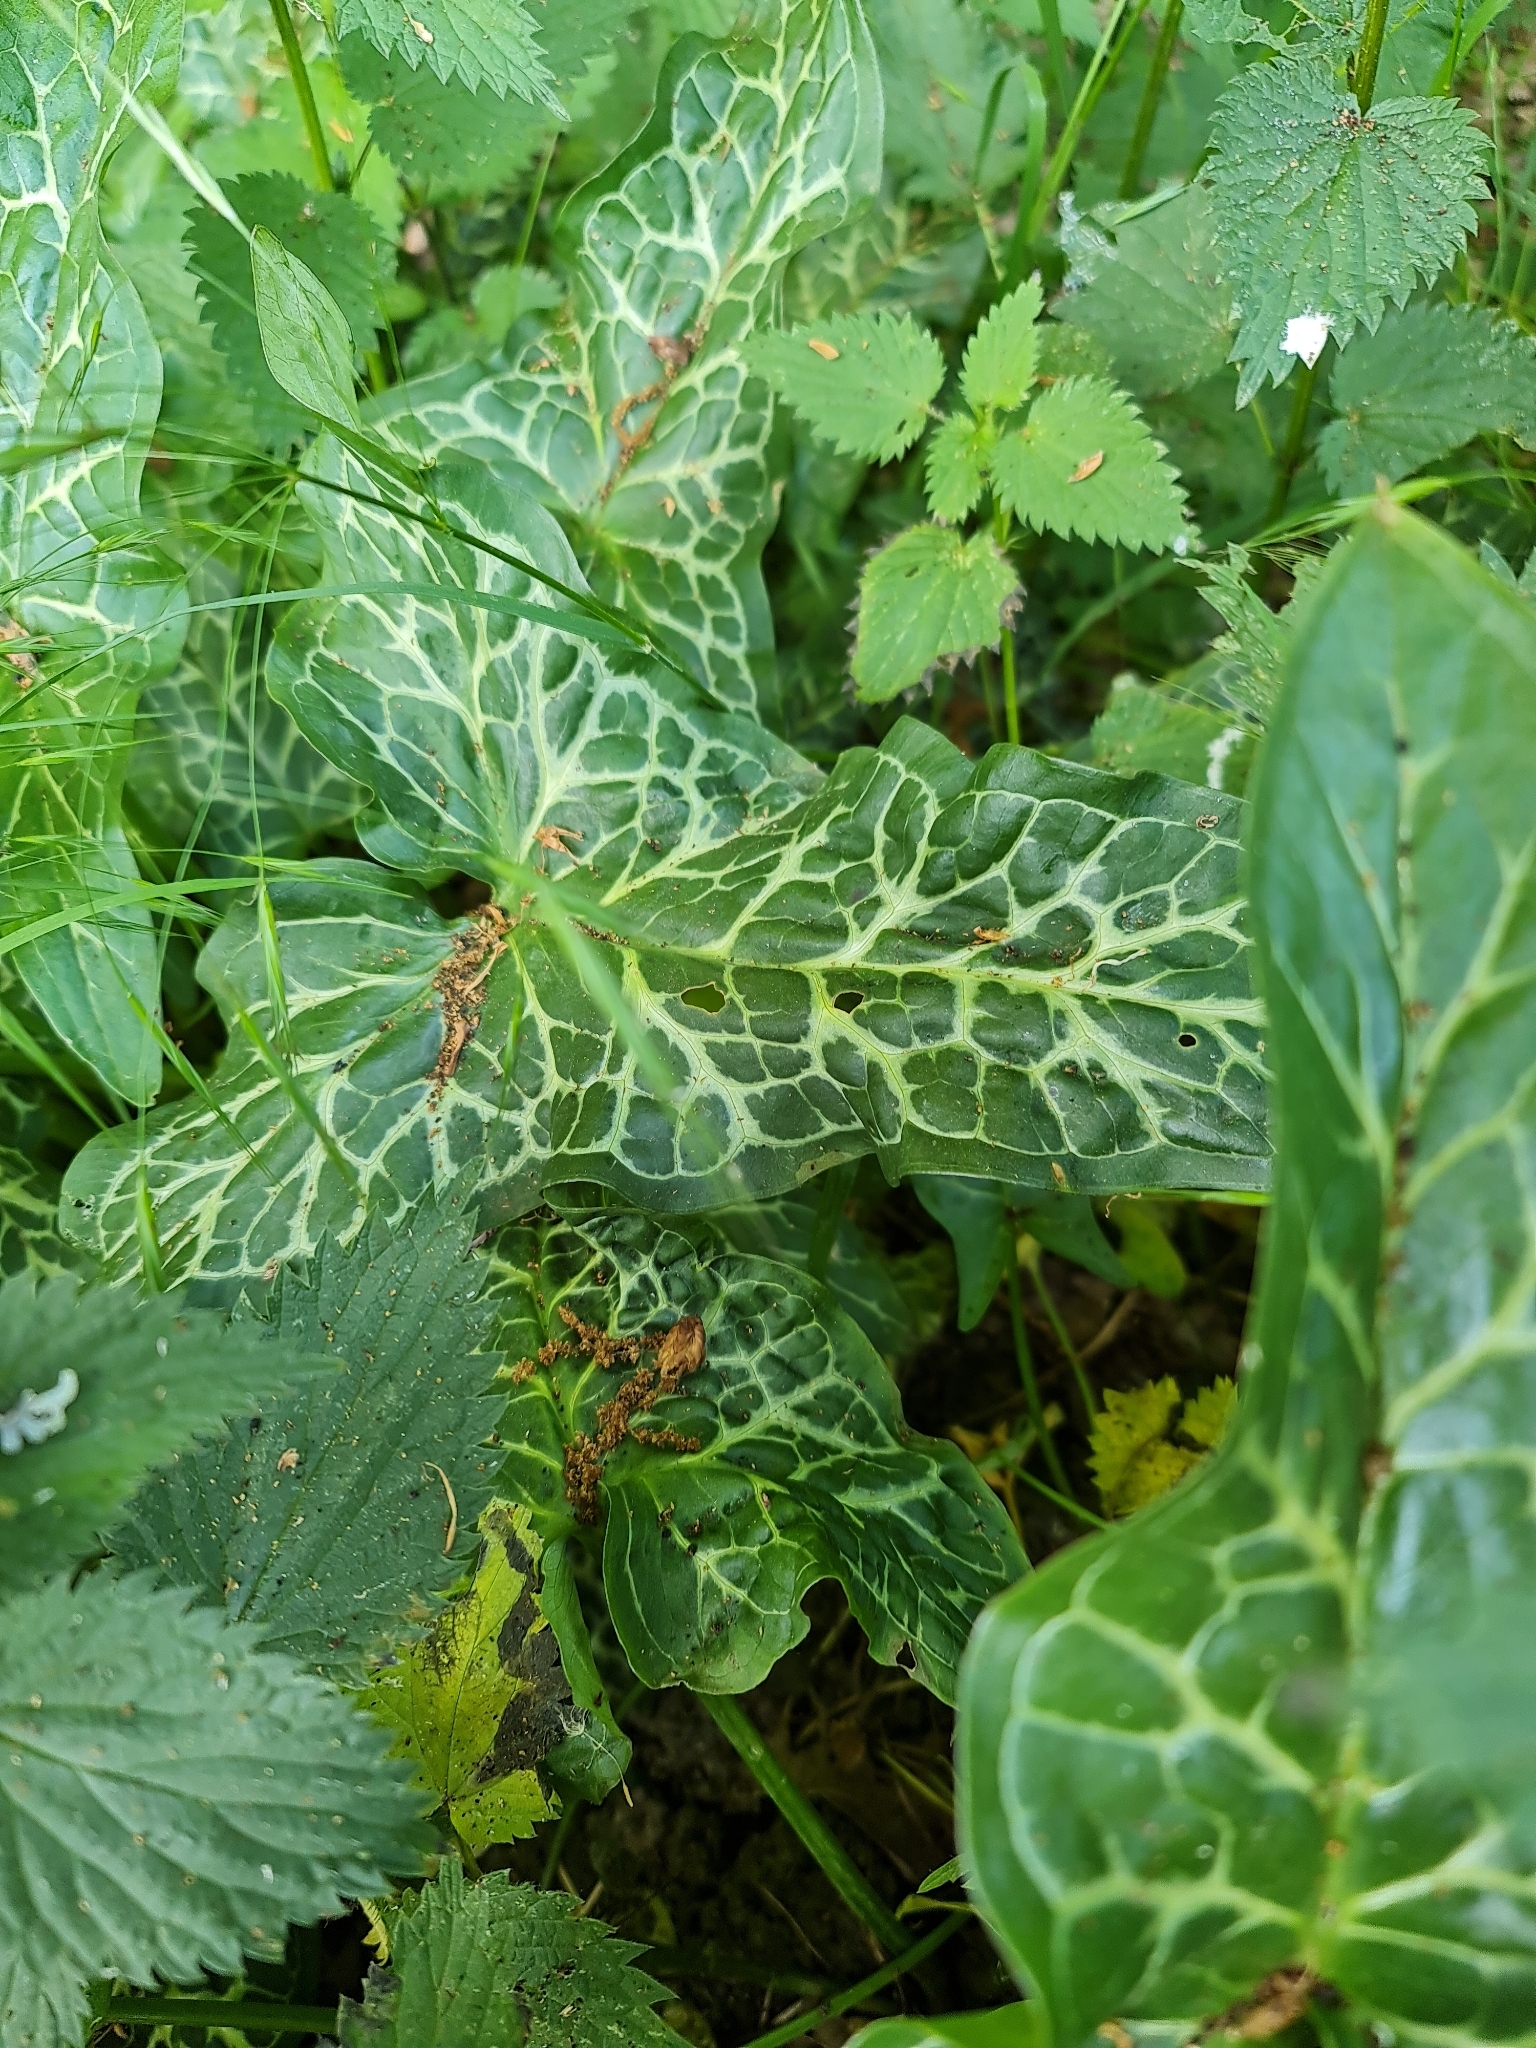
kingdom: Plantae
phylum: Tracheophyta
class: Liliopsida
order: Alismatales
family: Araceae
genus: Arum
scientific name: Arum italicum
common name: Italian lords-and-ladies
